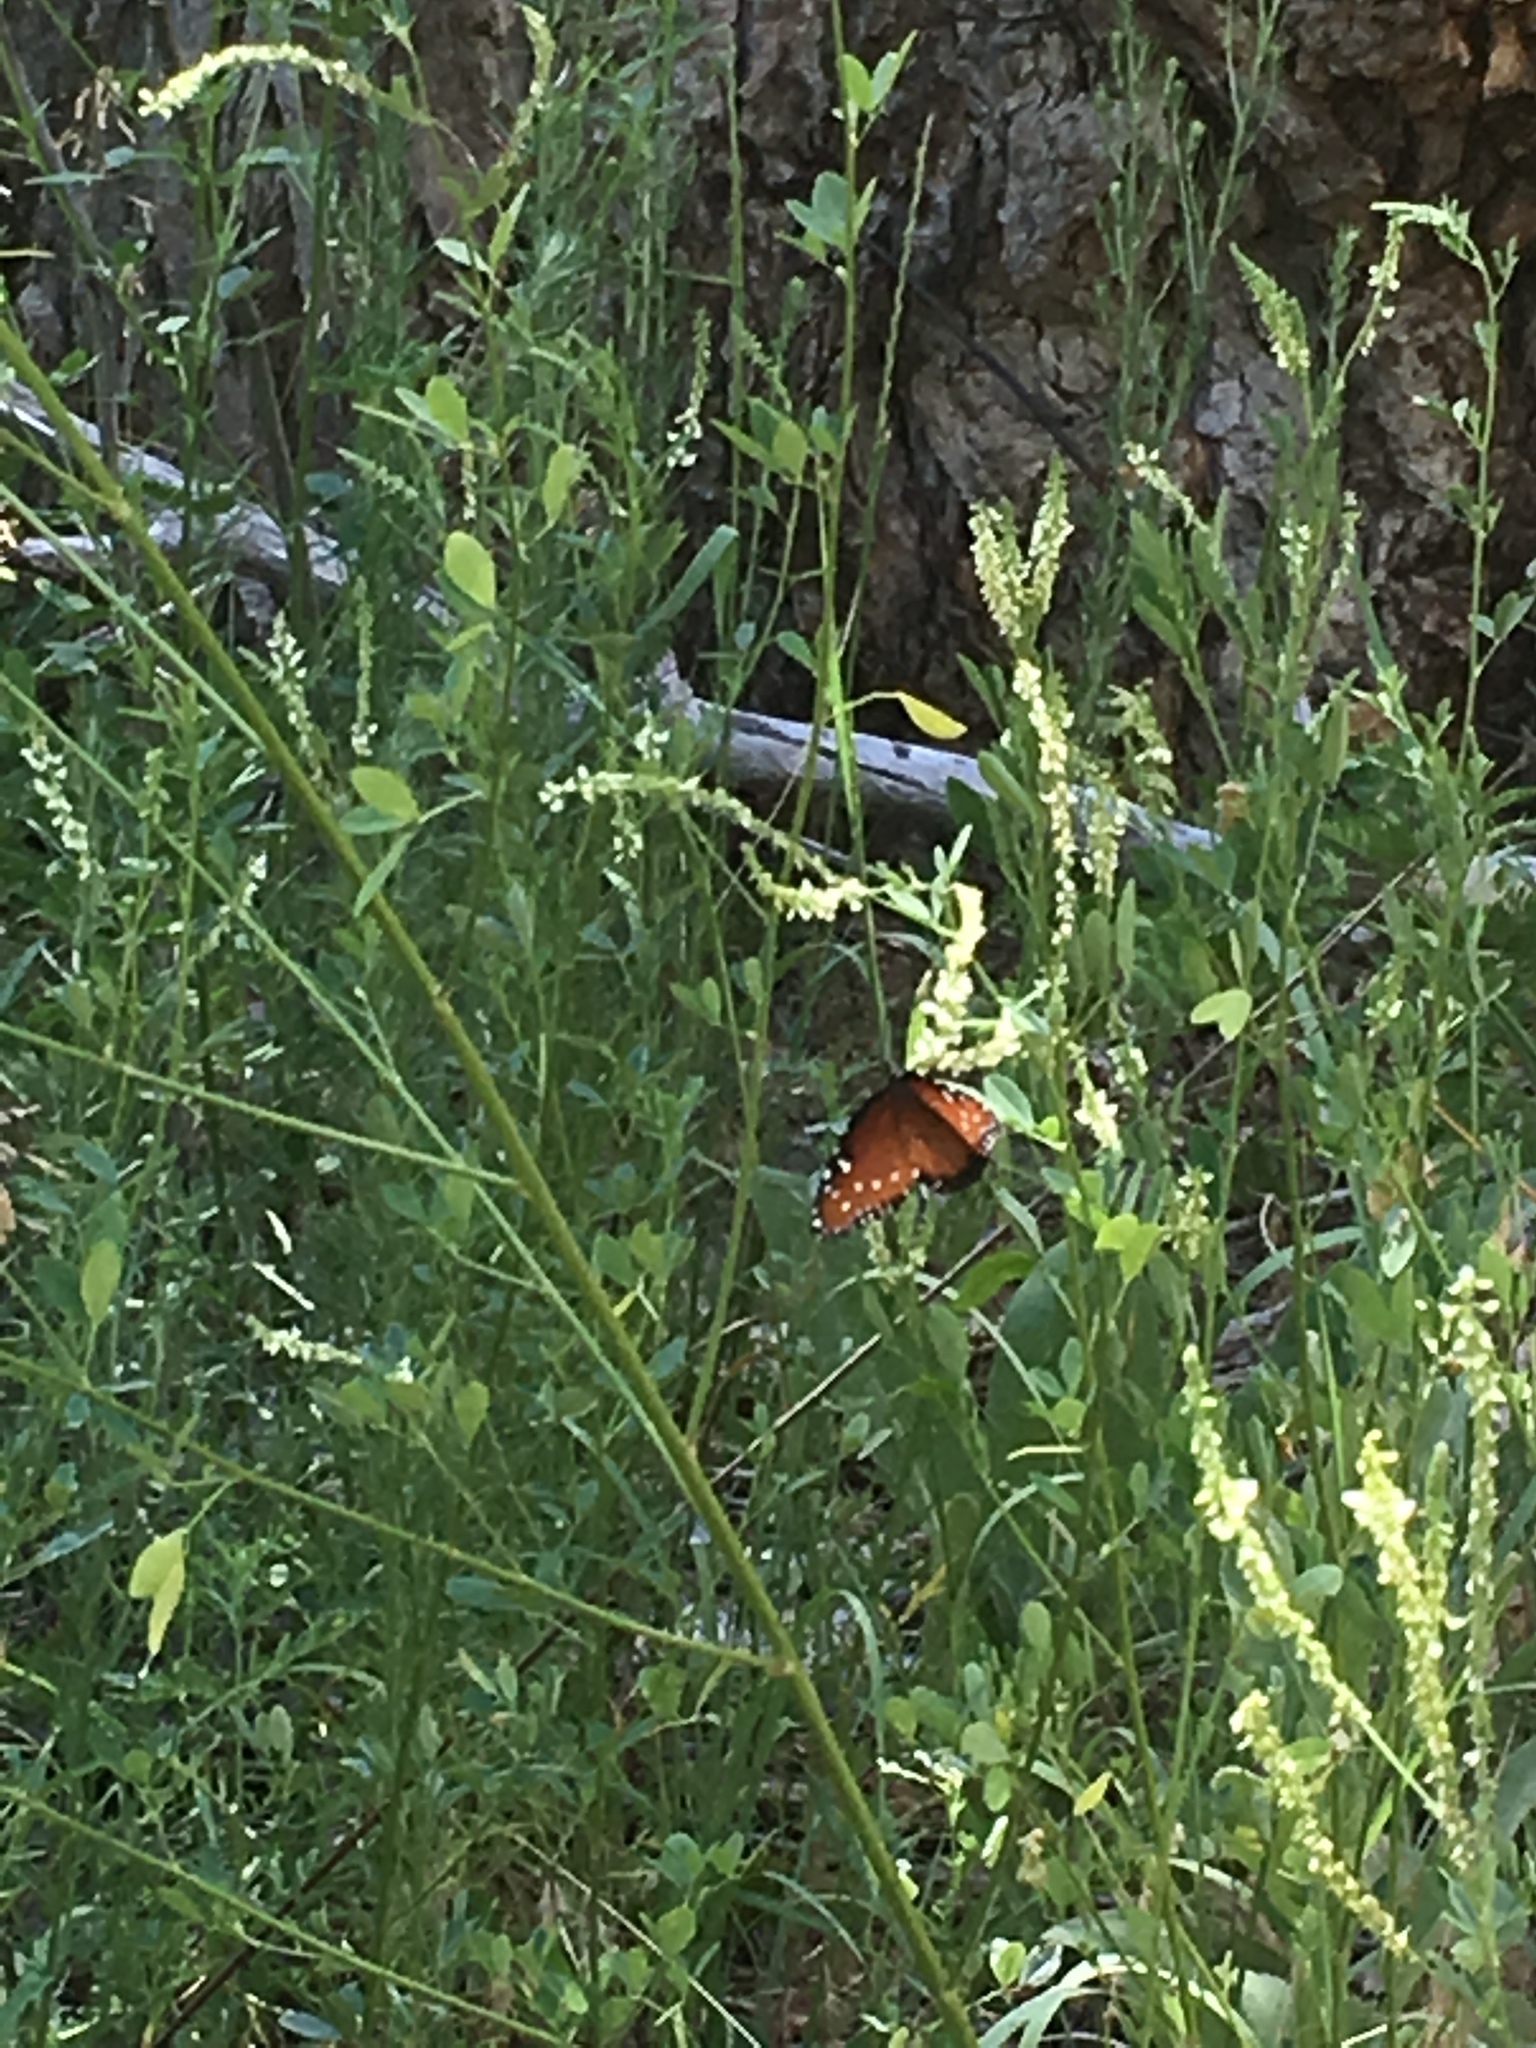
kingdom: Animalia
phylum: Arthropoda
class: Insecta
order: Lepidoptera
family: Nymphalidae
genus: Danaus
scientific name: Danaus gilippus
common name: Queen
